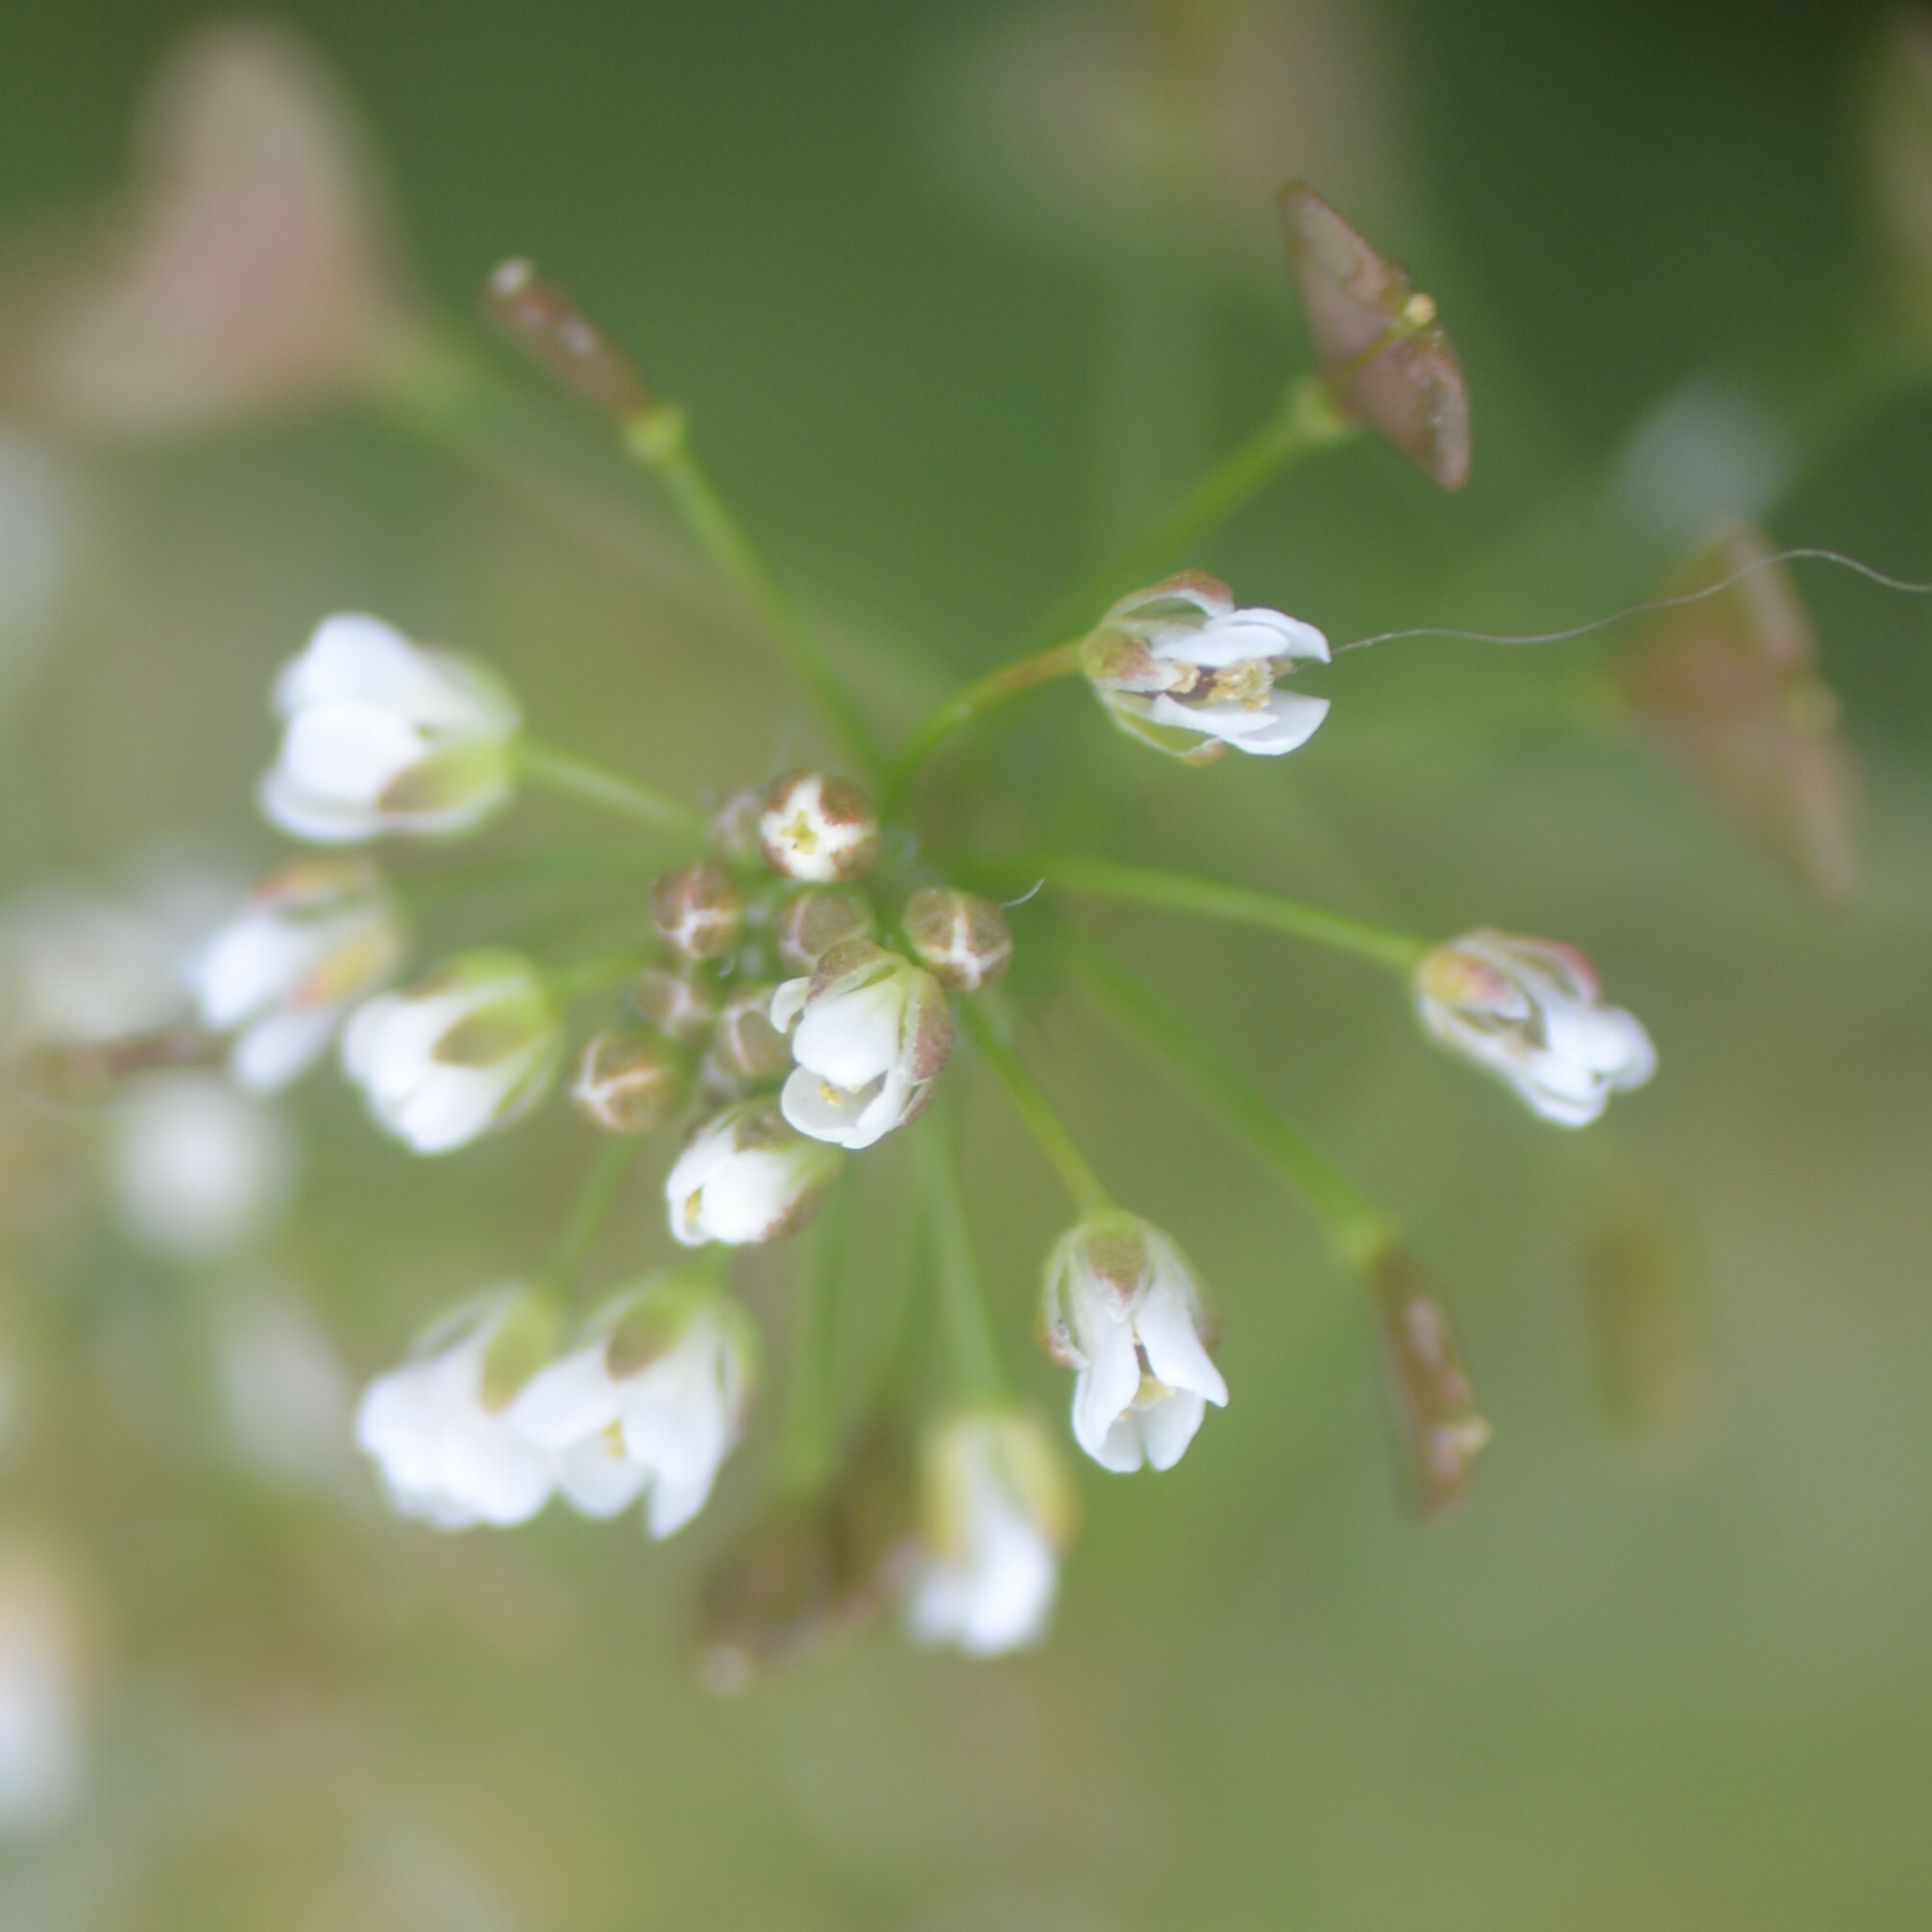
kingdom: Plantae
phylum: Tracheophyta
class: Magnoliopsida
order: Brassicales
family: Brassicaceae
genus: Capsella
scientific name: Capsella bursa-pastoris
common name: Shepherd's purse
